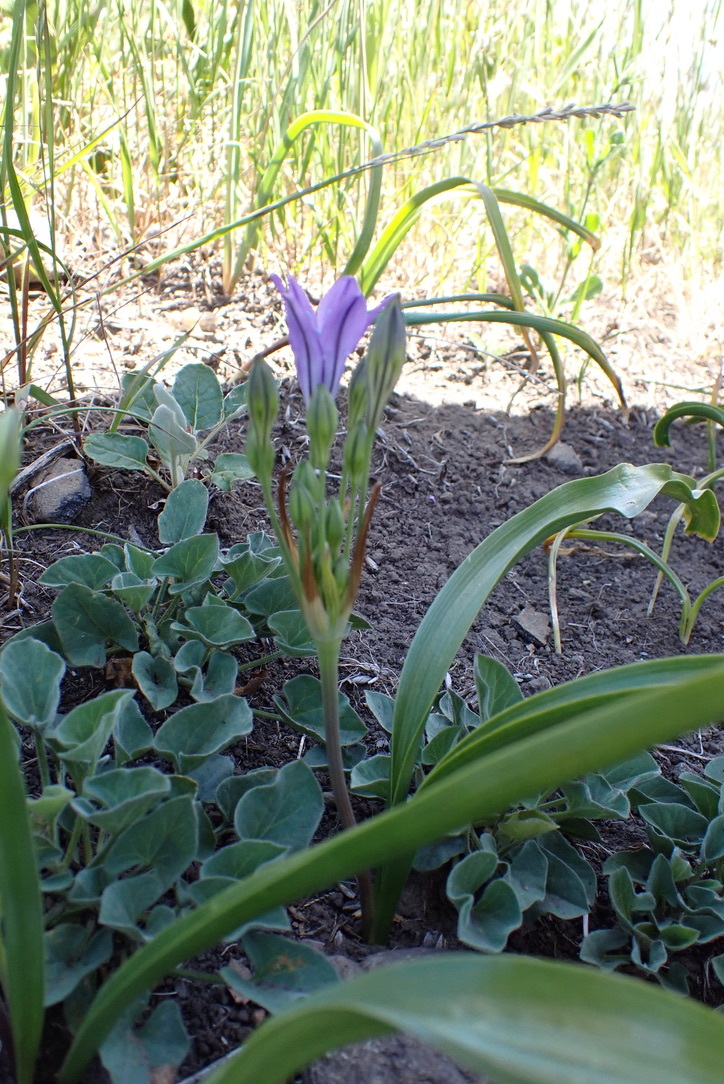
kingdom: Plantae
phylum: Tracheophyta
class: Liliopsida
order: Asparagales
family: Asparagaceae
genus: Triteleia
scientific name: Triteleia laxa
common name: Triplet-lily
